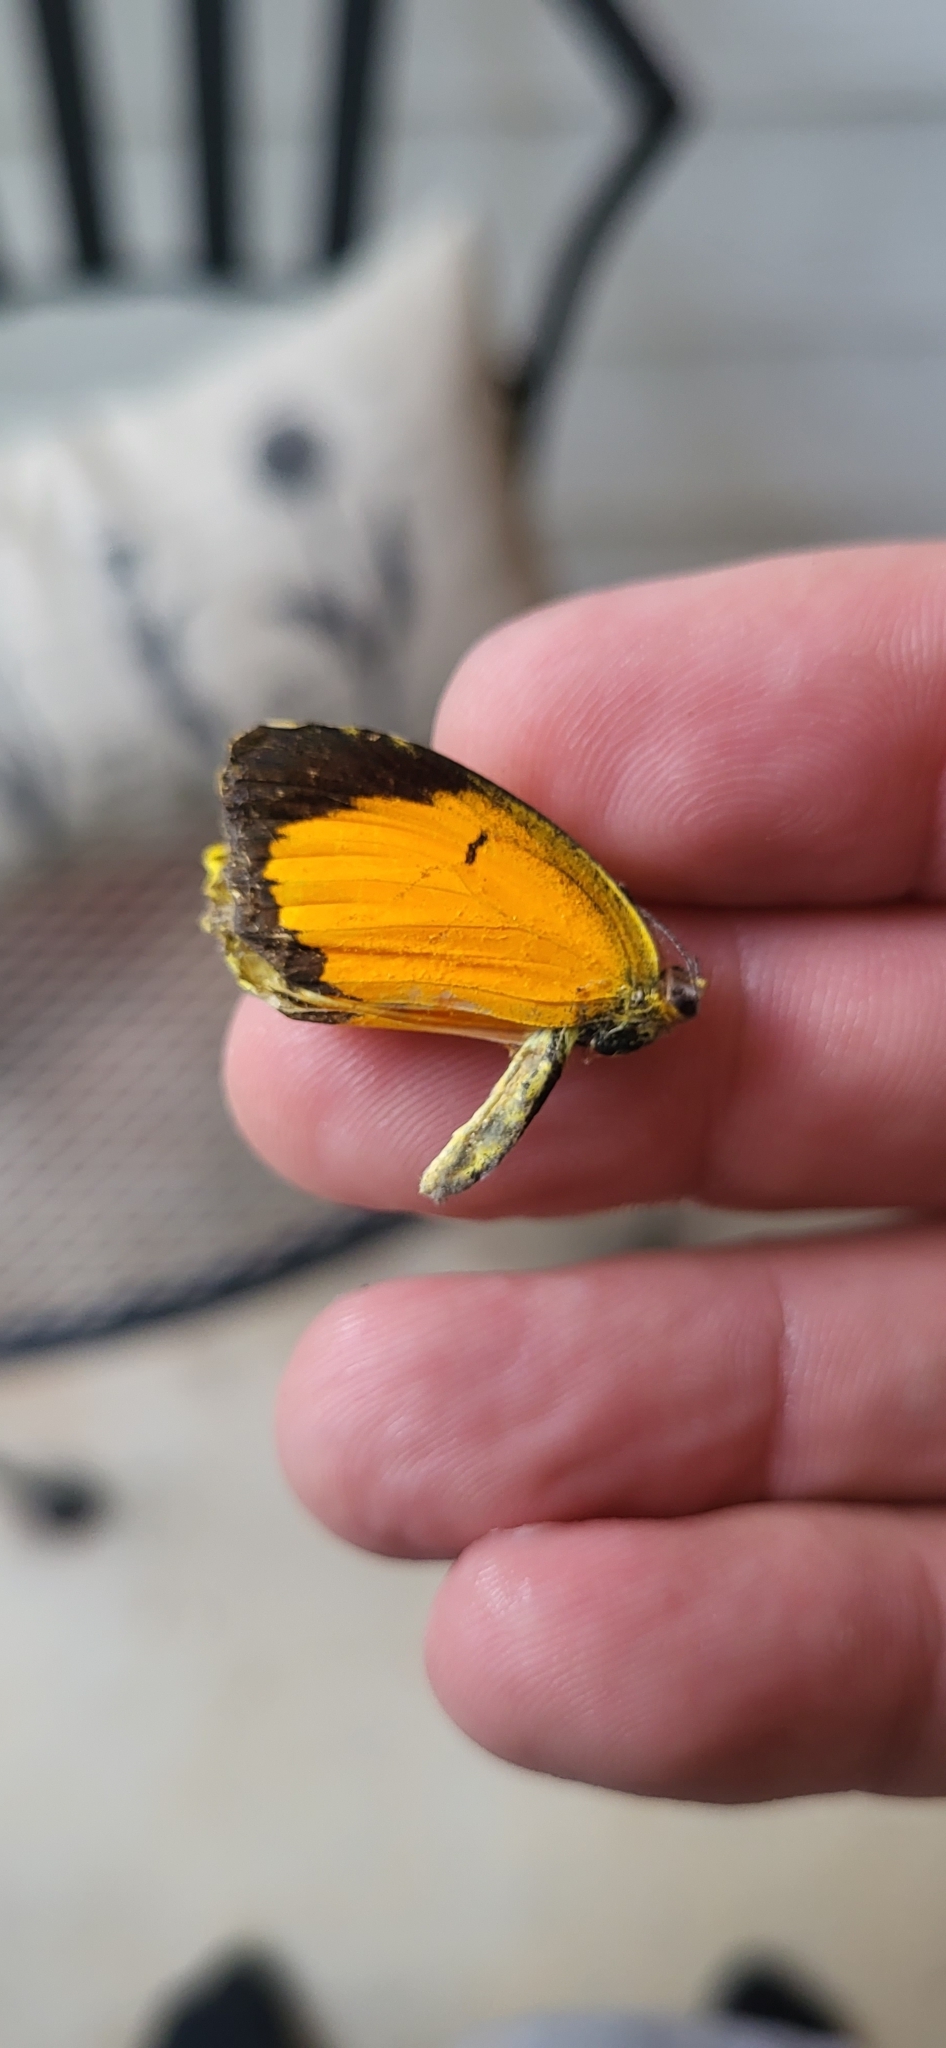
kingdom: Animalia
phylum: Arthropoda
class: Insecta
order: Lepidoptera
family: Pieridae
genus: Abaeis
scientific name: Abaeis nicippe
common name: Sleepy orange
